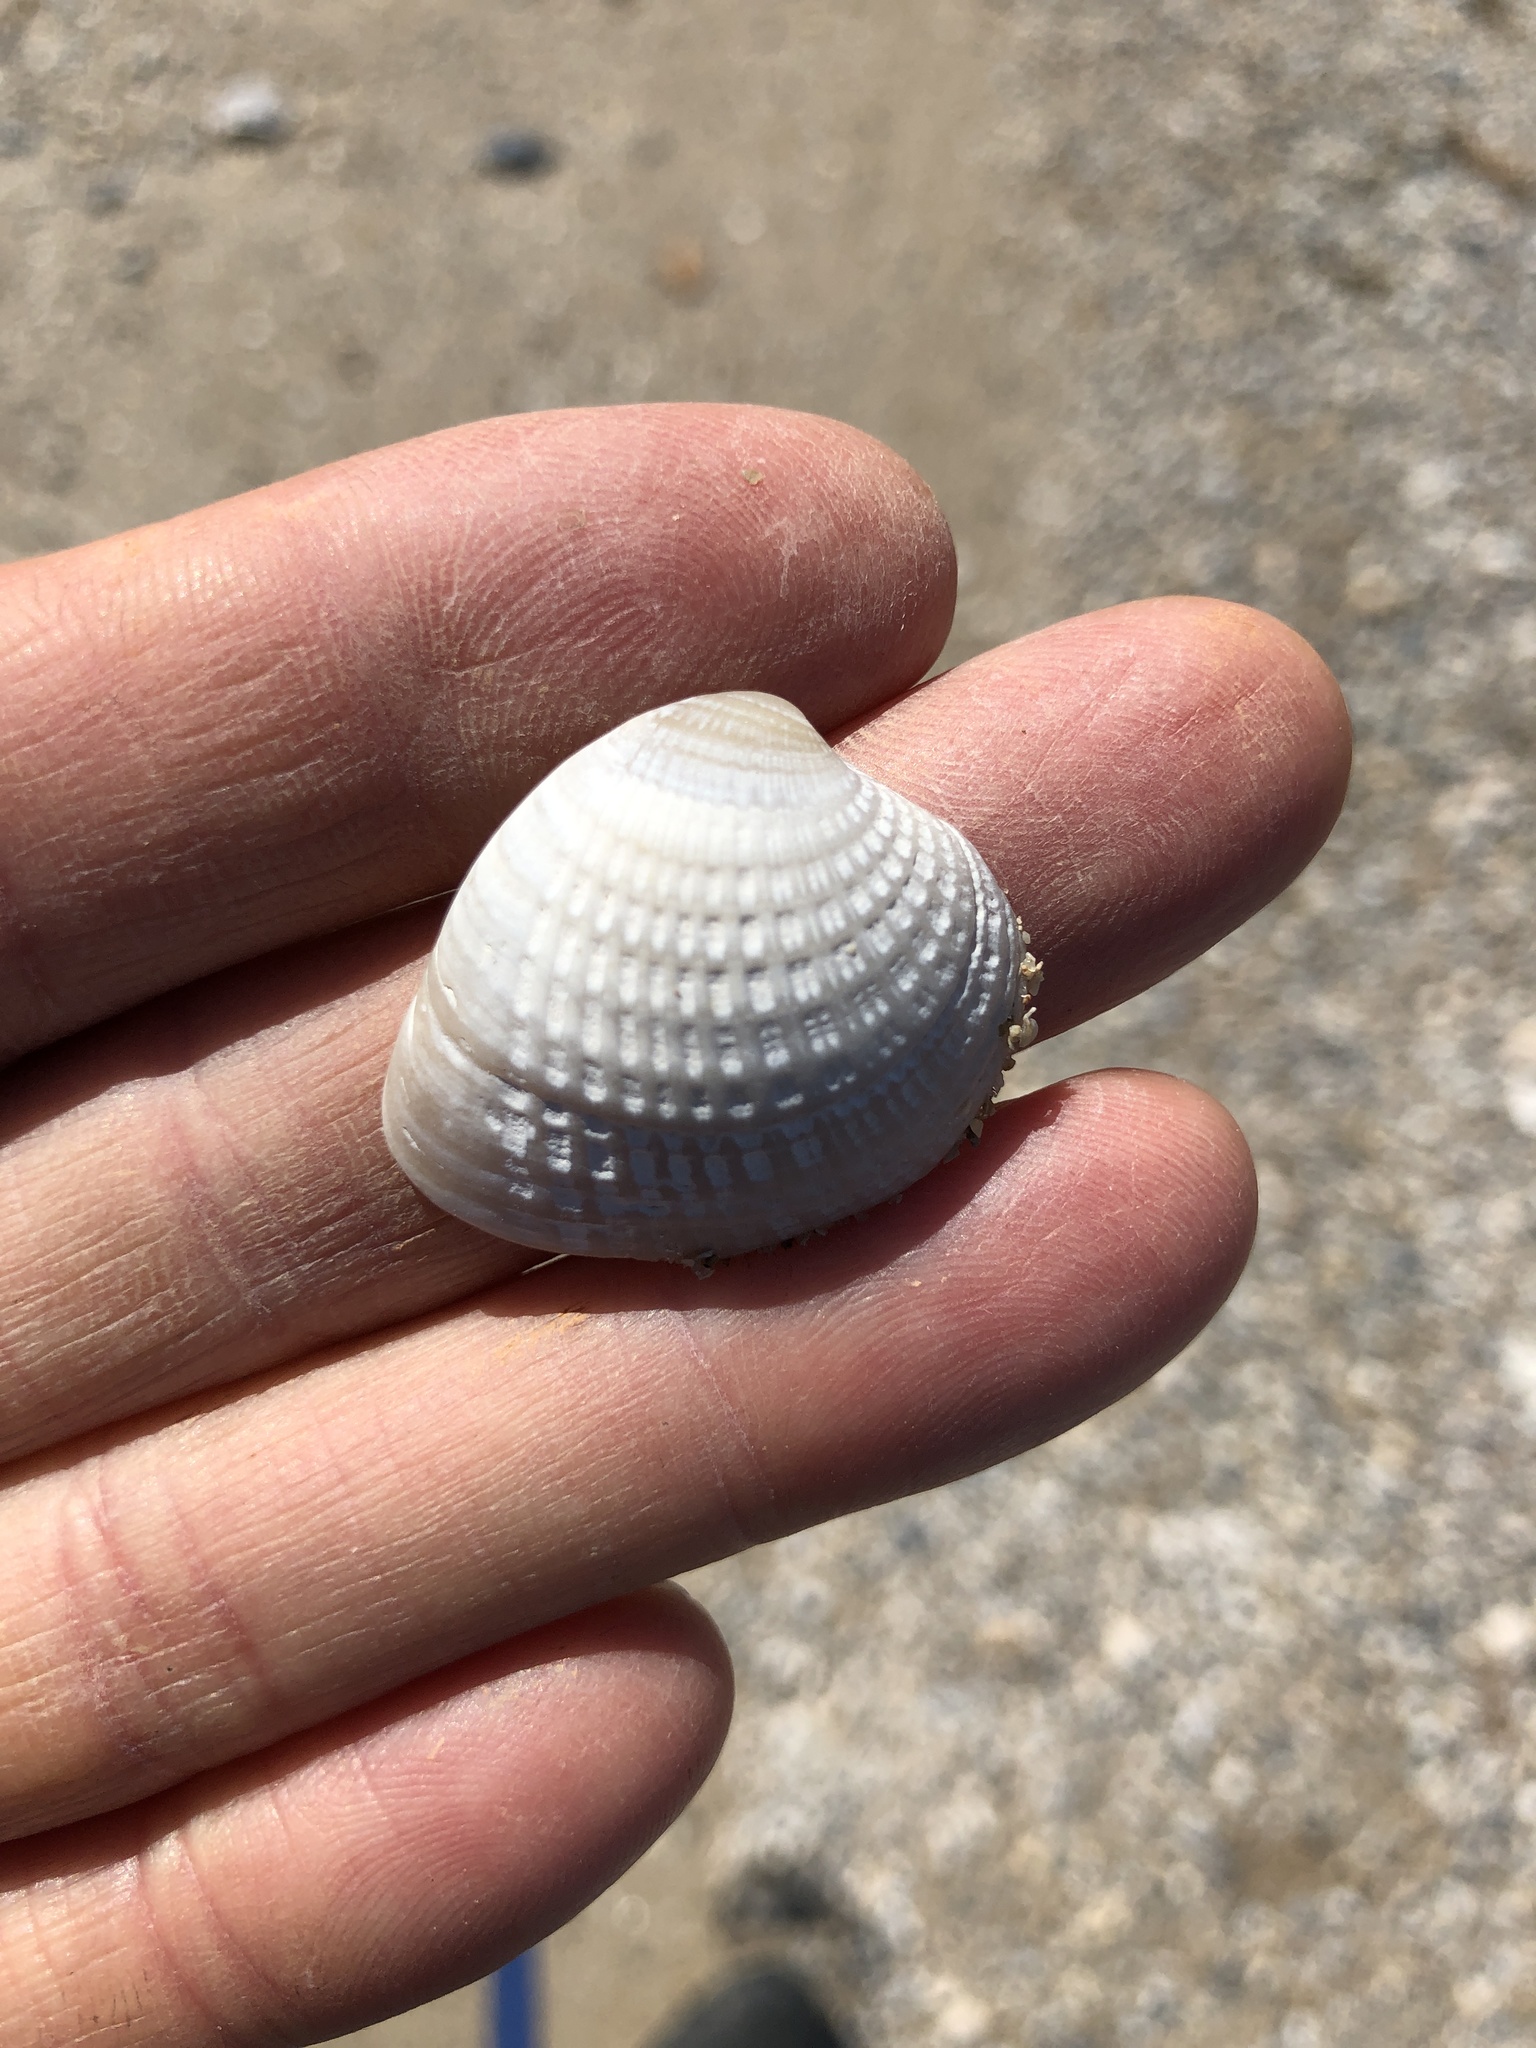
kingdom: Animalia
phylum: Mollusca
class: Bivalvia
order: Venerida
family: Veneridae
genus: Chione
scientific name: Chione elevata
